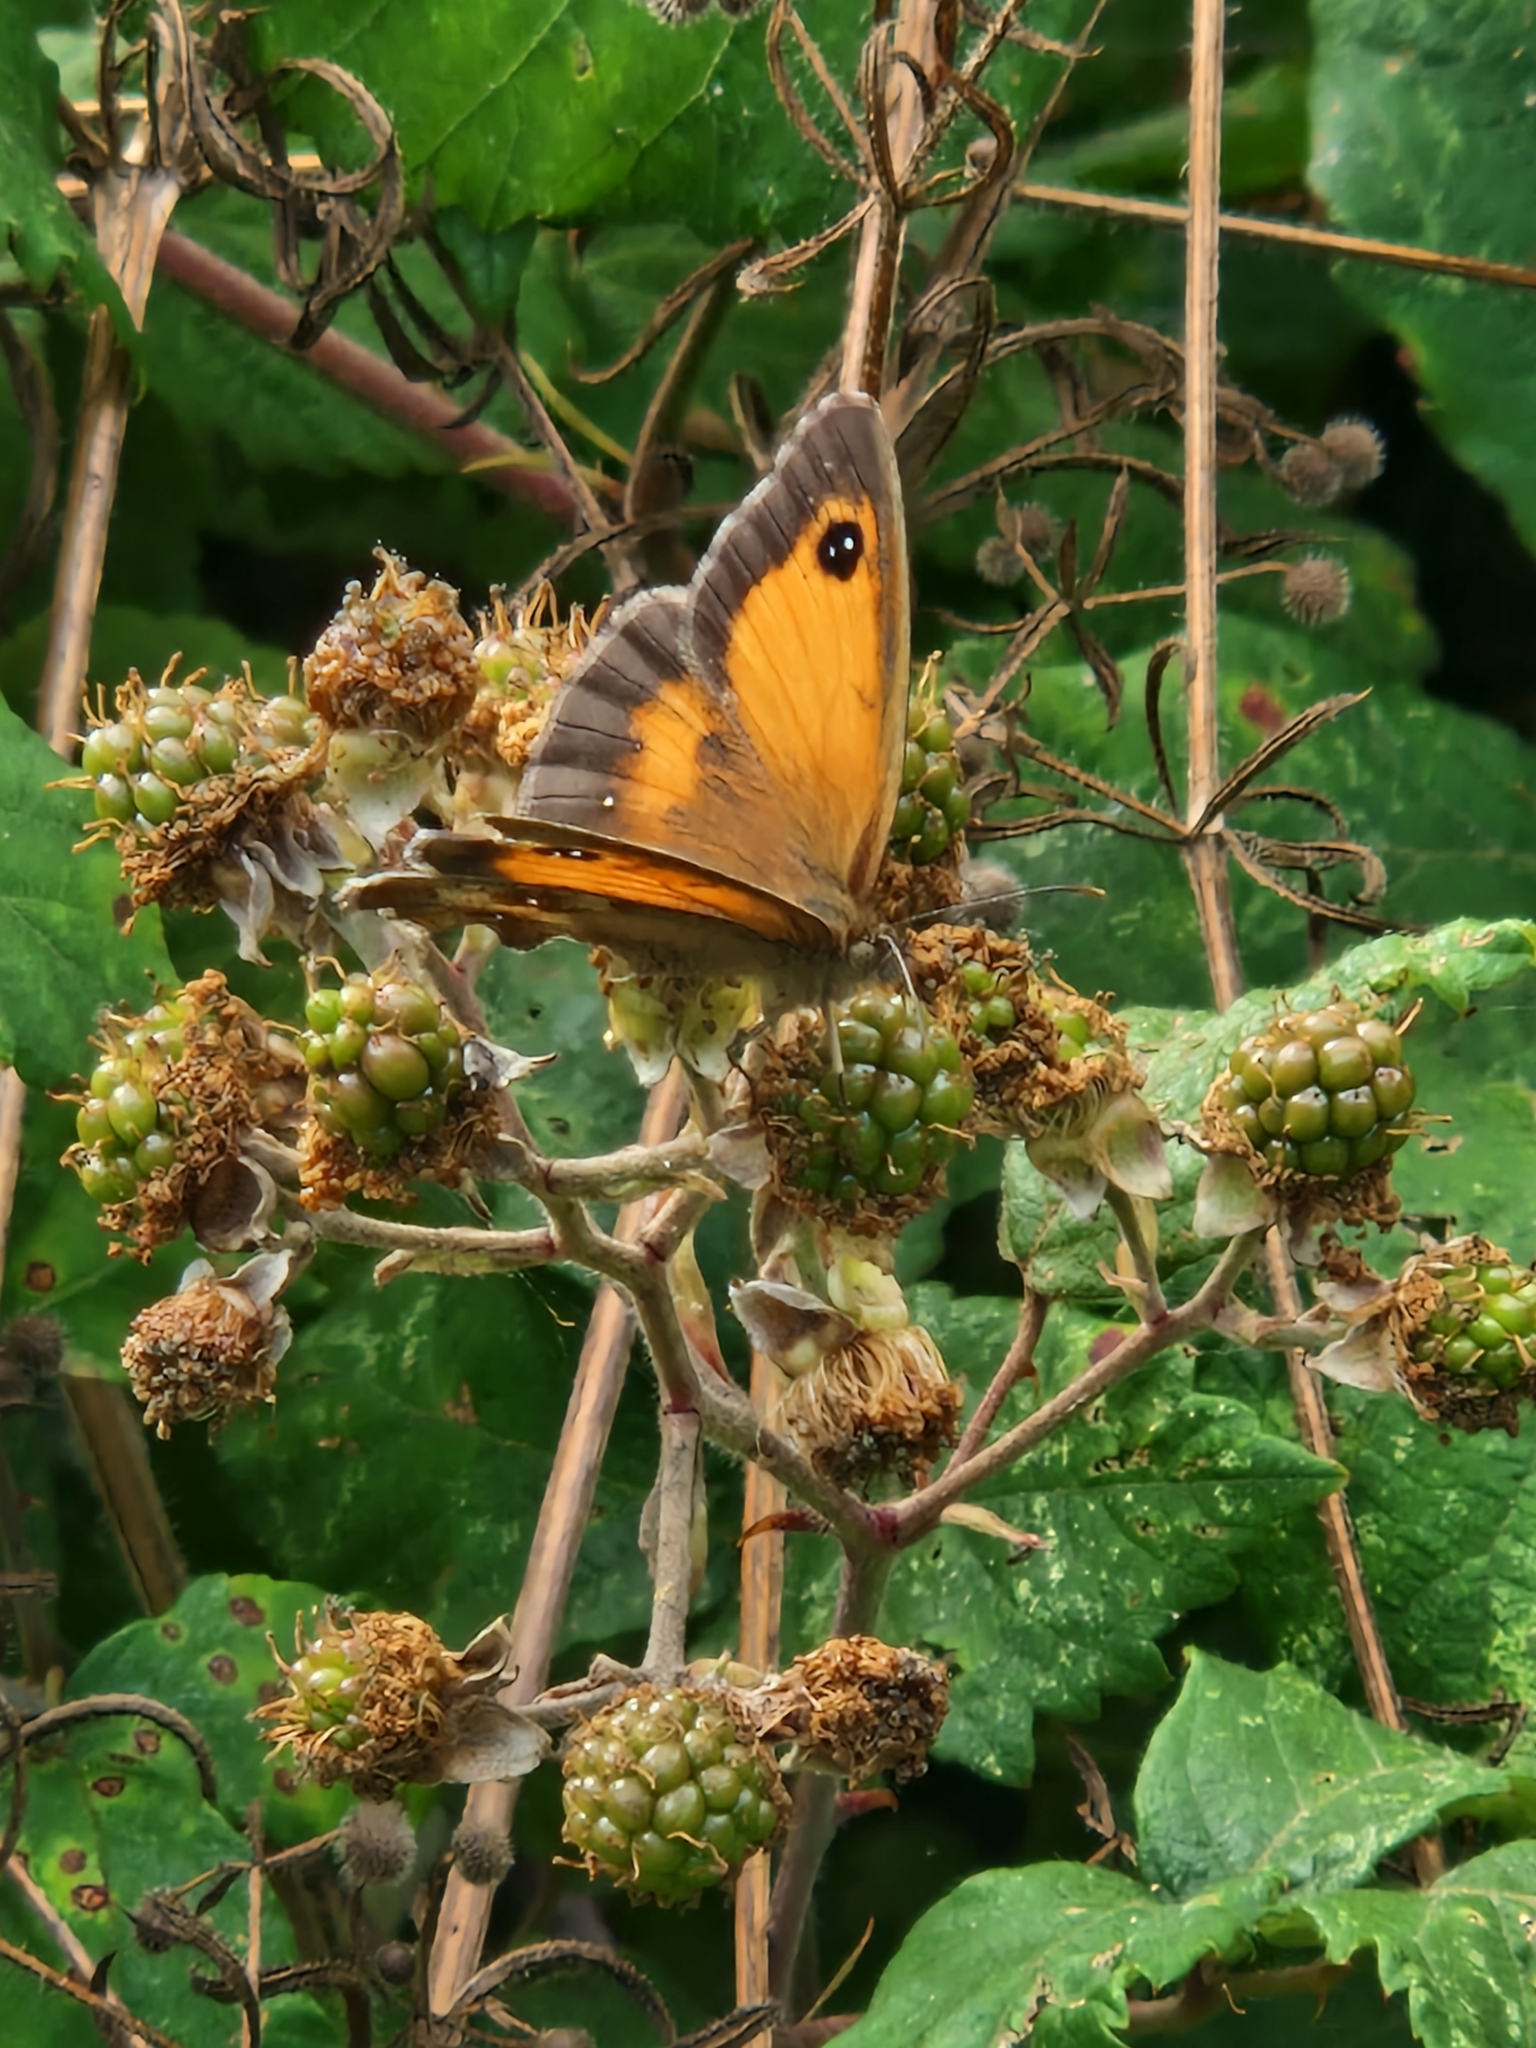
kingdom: Animalia
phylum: Arthropoda
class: Insecta
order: Lepidoptera
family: Nymphalidae
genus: Pyronia
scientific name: Pyronia tithonus
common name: Gatekeeper
